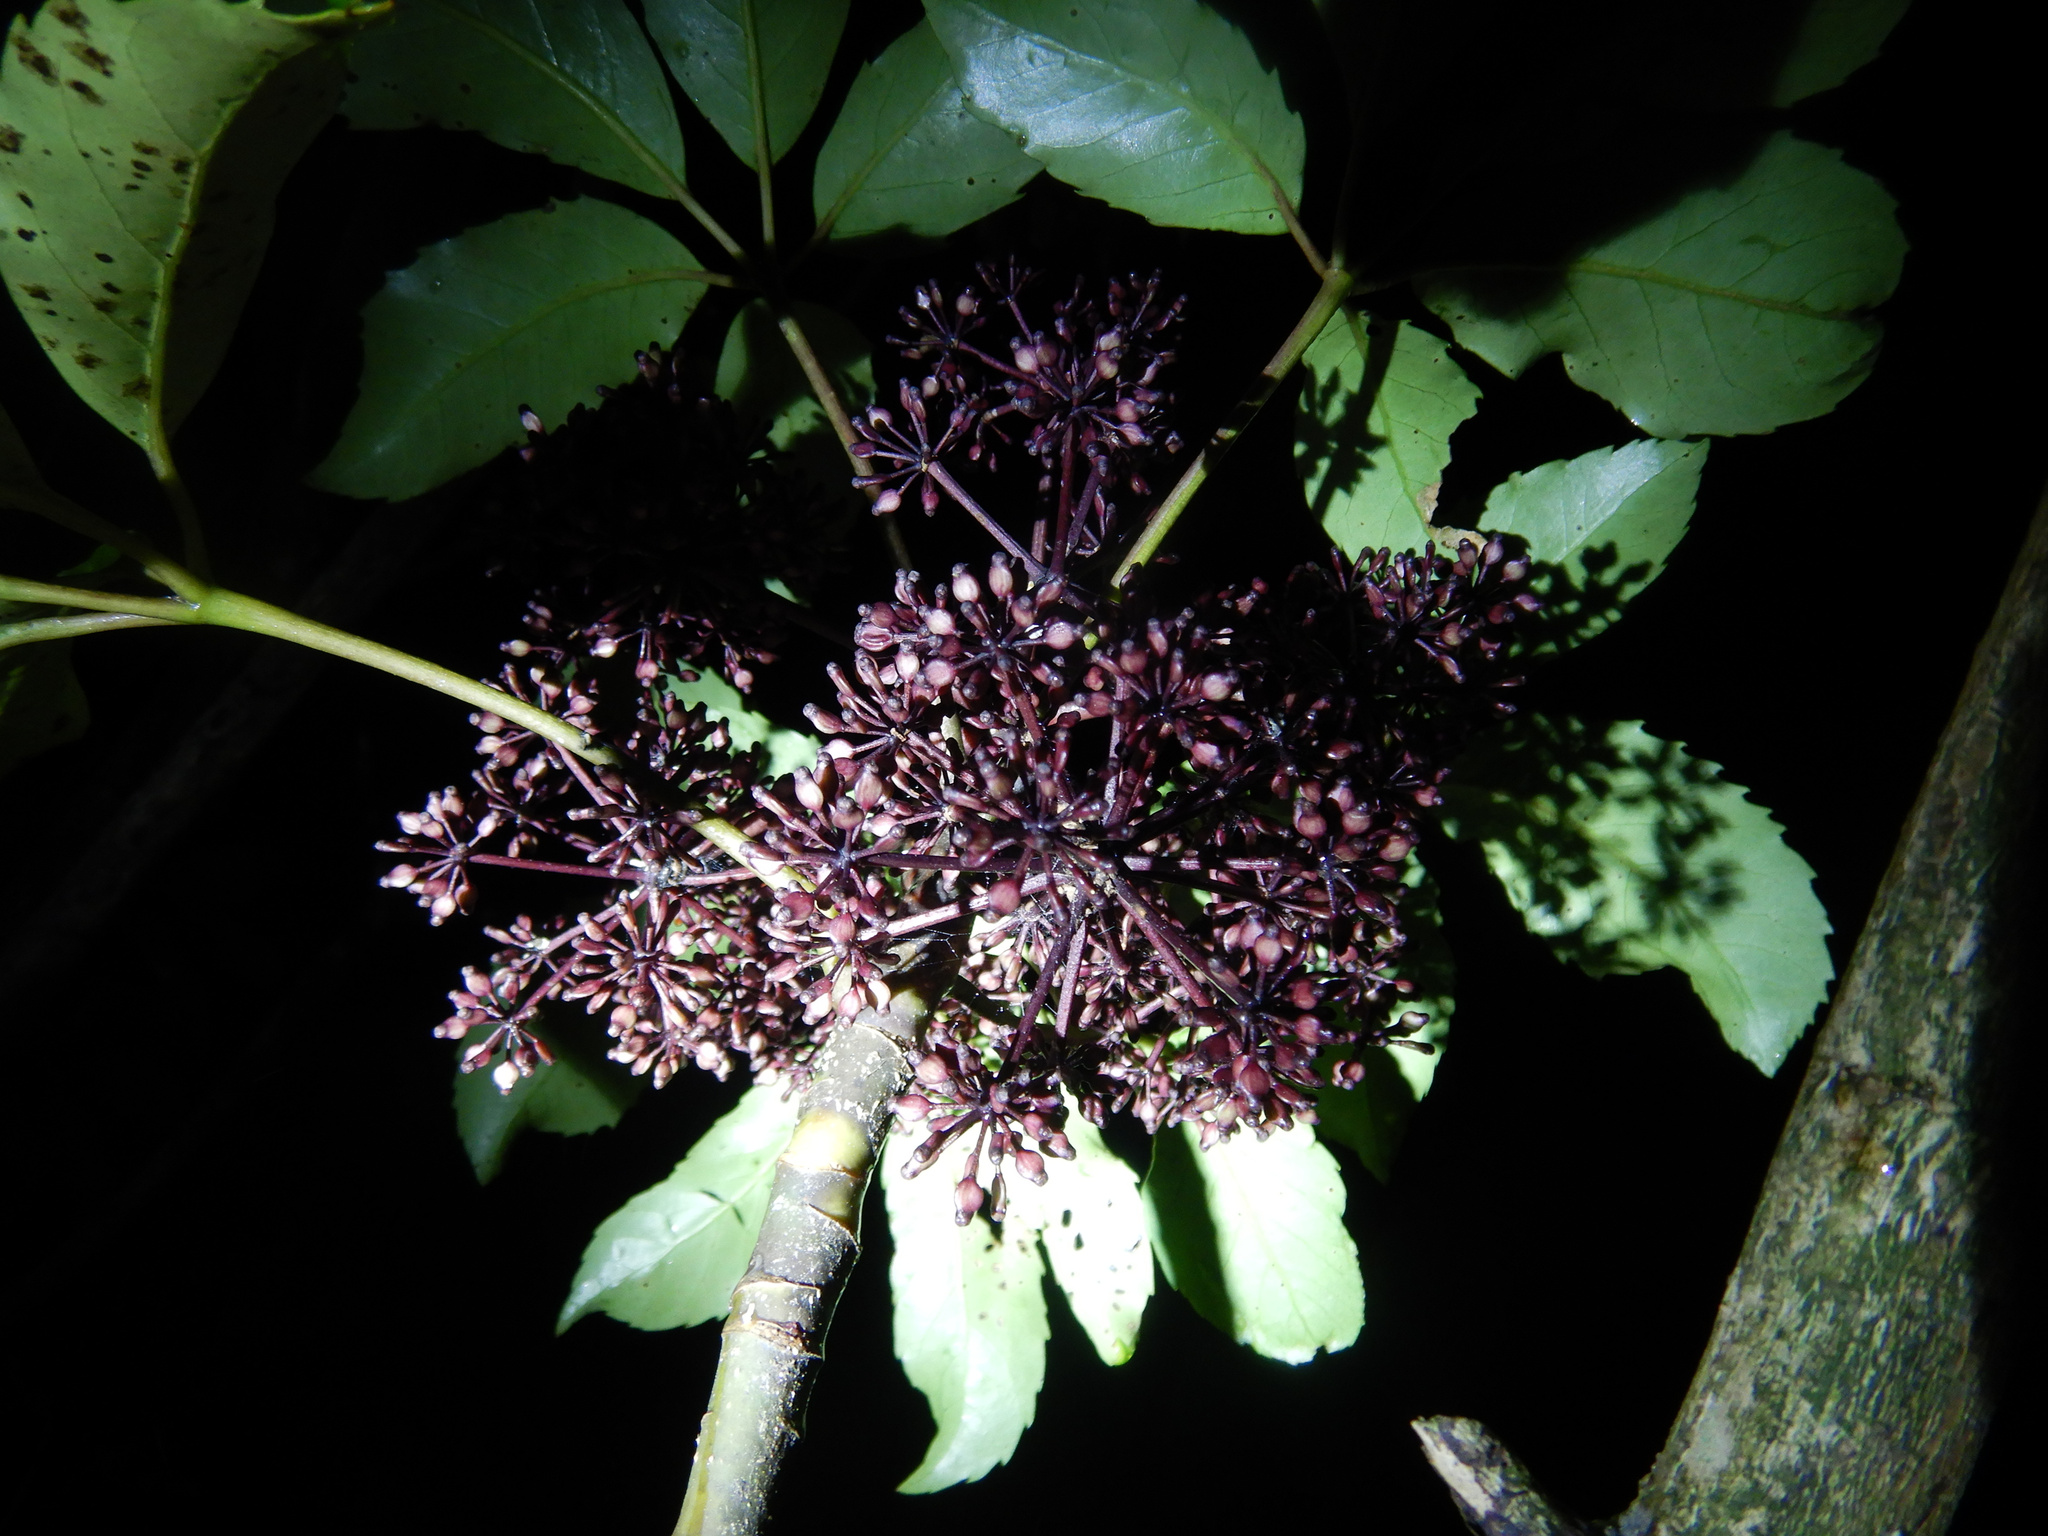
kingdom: Plantae
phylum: Tracheophyta
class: Magnoliopsida
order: Apiales
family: Araliaceae
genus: Neopanax
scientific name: Neopanax arboreus
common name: Five-fingers
